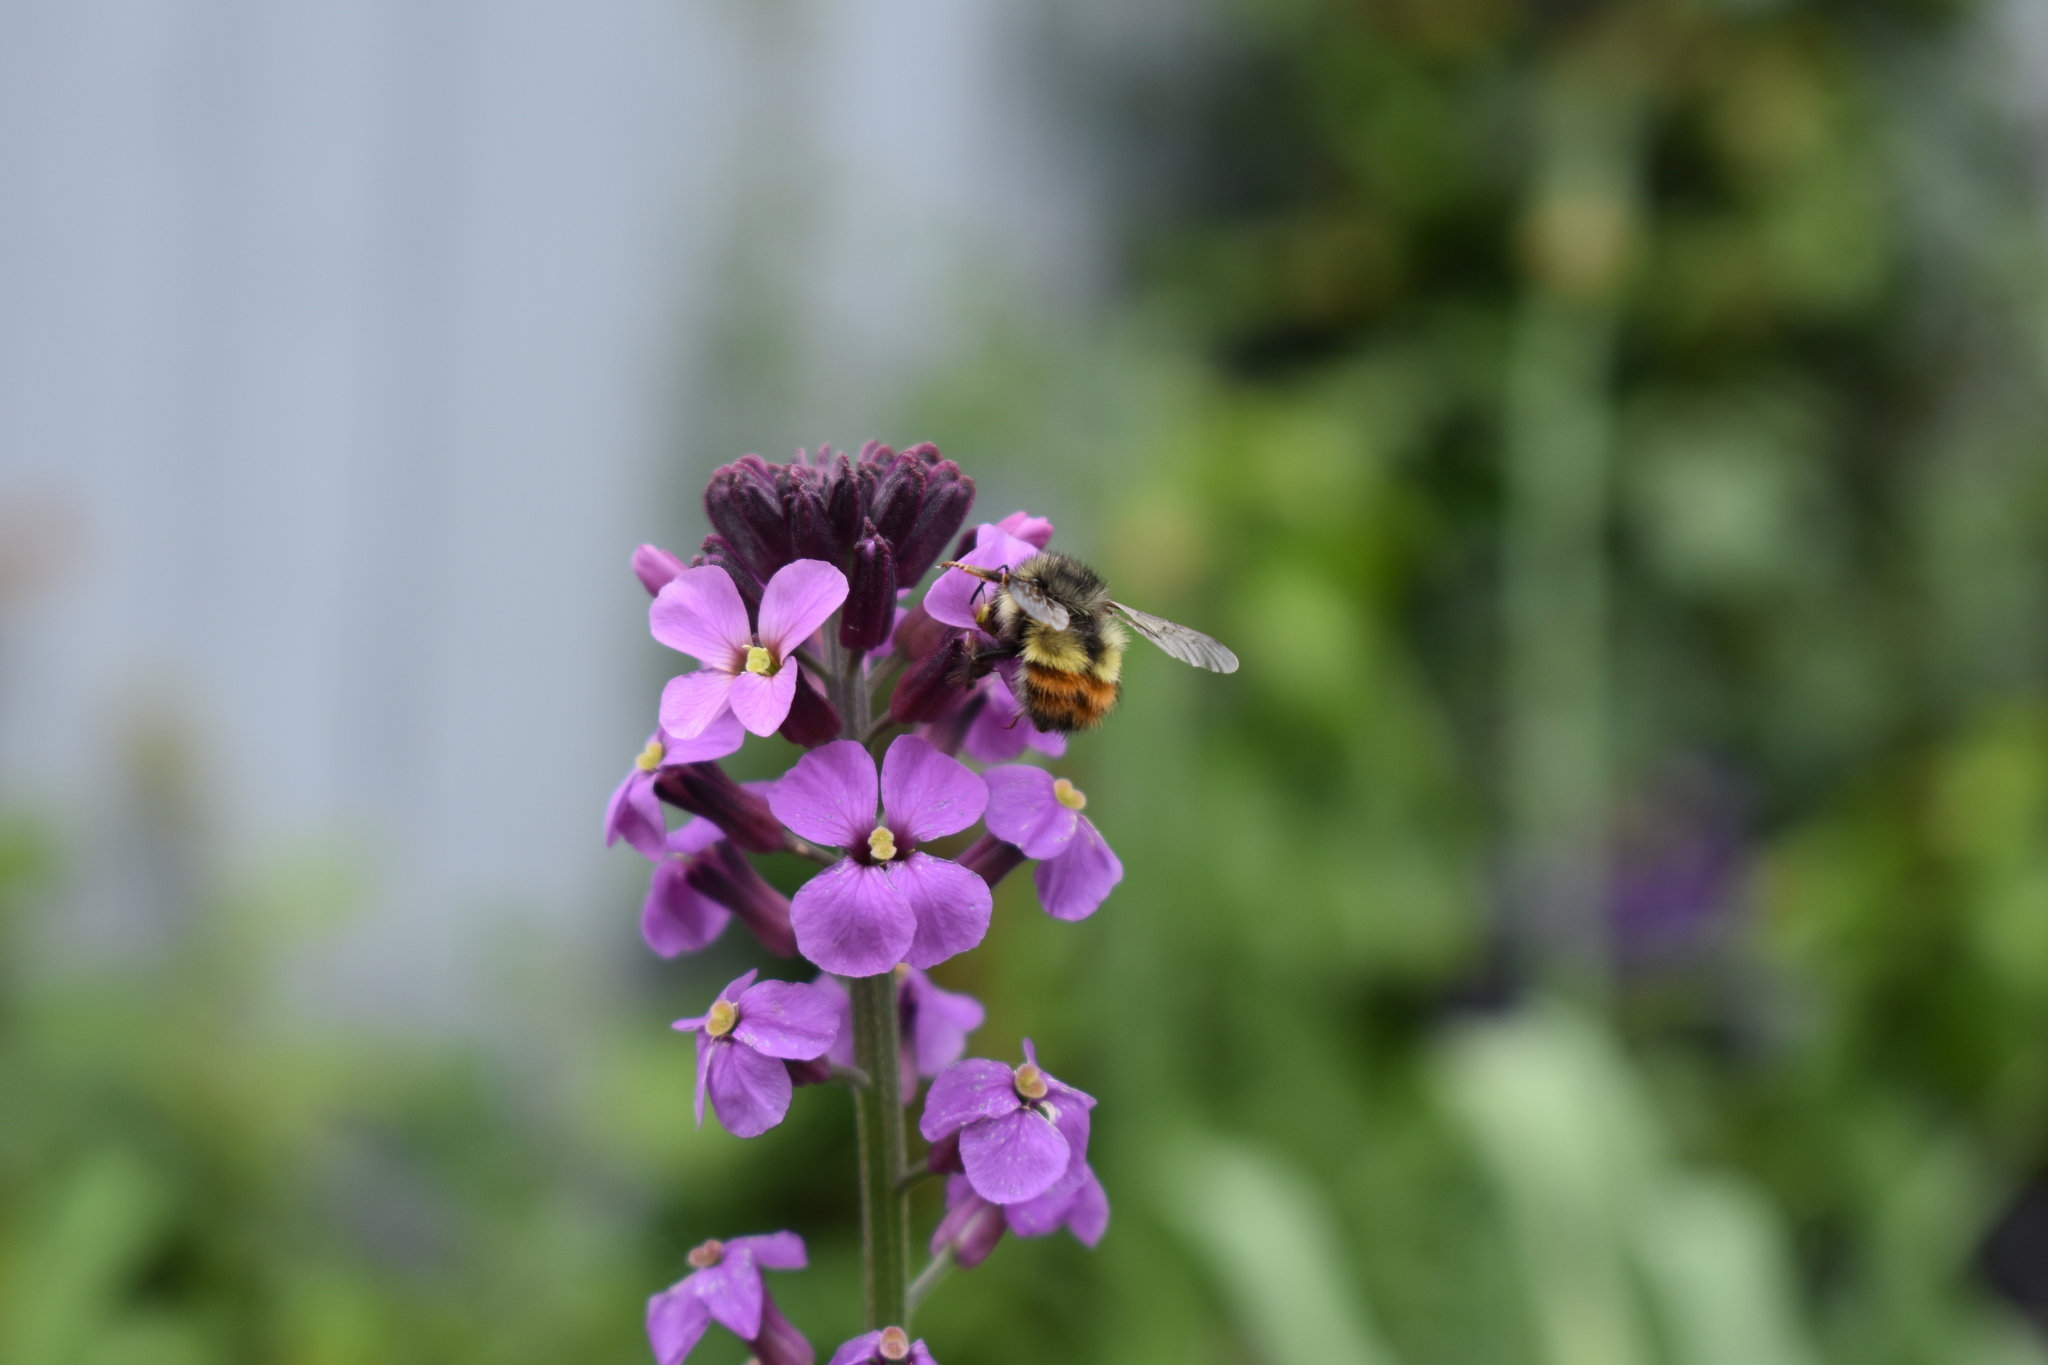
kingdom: Animalia
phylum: Arthropoda
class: Insecta
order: Hymenoptera
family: Apidae
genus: Bombus
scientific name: Bombus flavifrons
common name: Yellow head bumble bee
